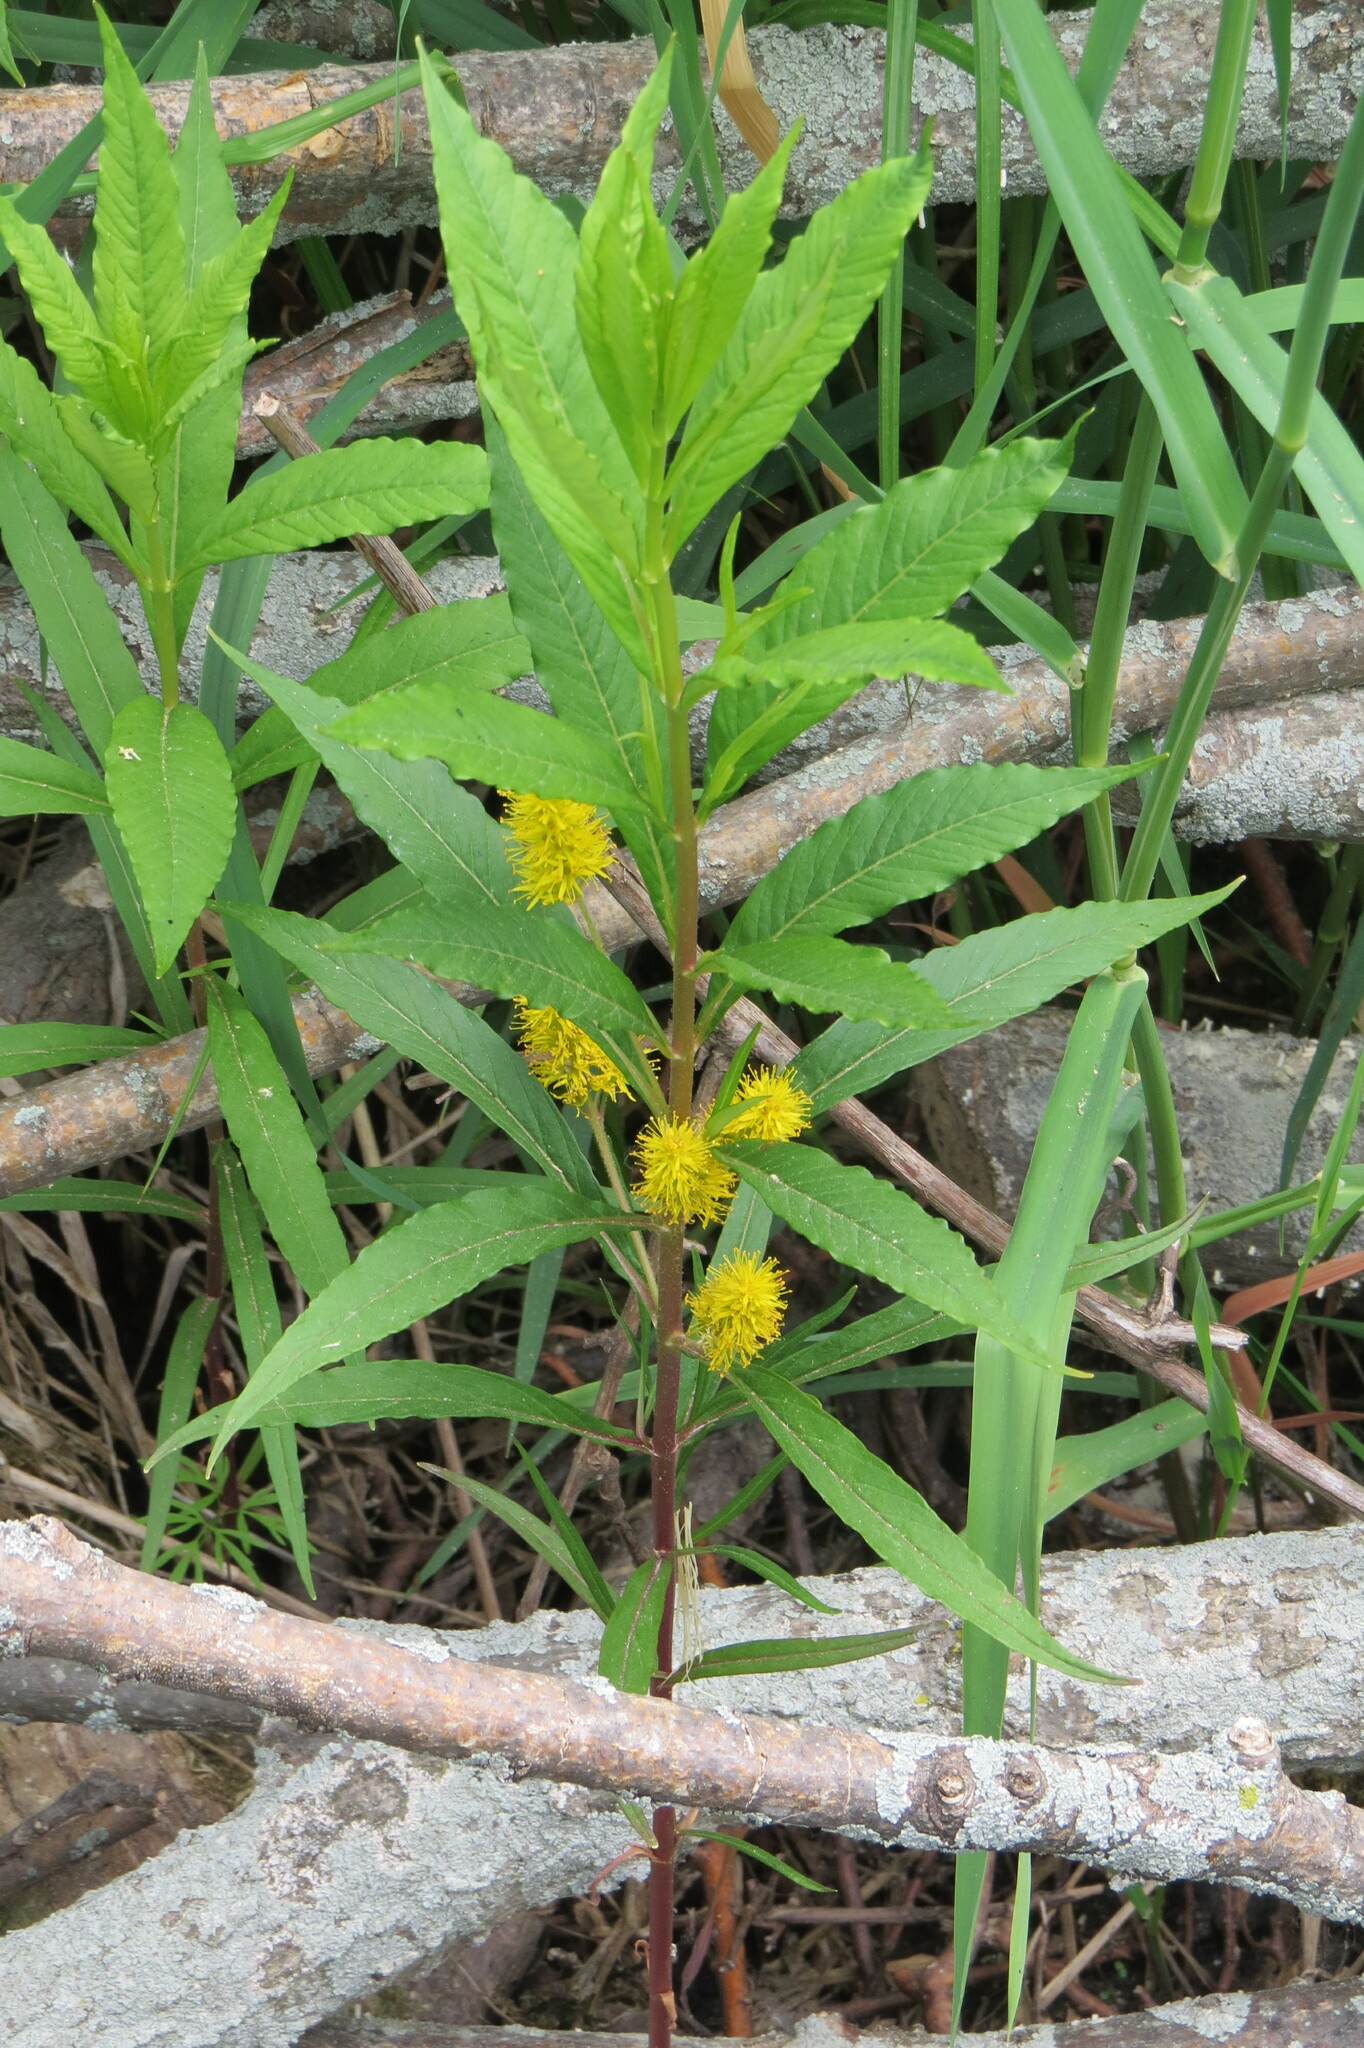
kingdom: Plantae
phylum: Tracheophyta
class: Magnoliopsida
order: Ericales
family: Primulaceae
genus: Lysimachia
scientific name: Lysimachia thyrsiflora
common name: Tufted loosestrife
